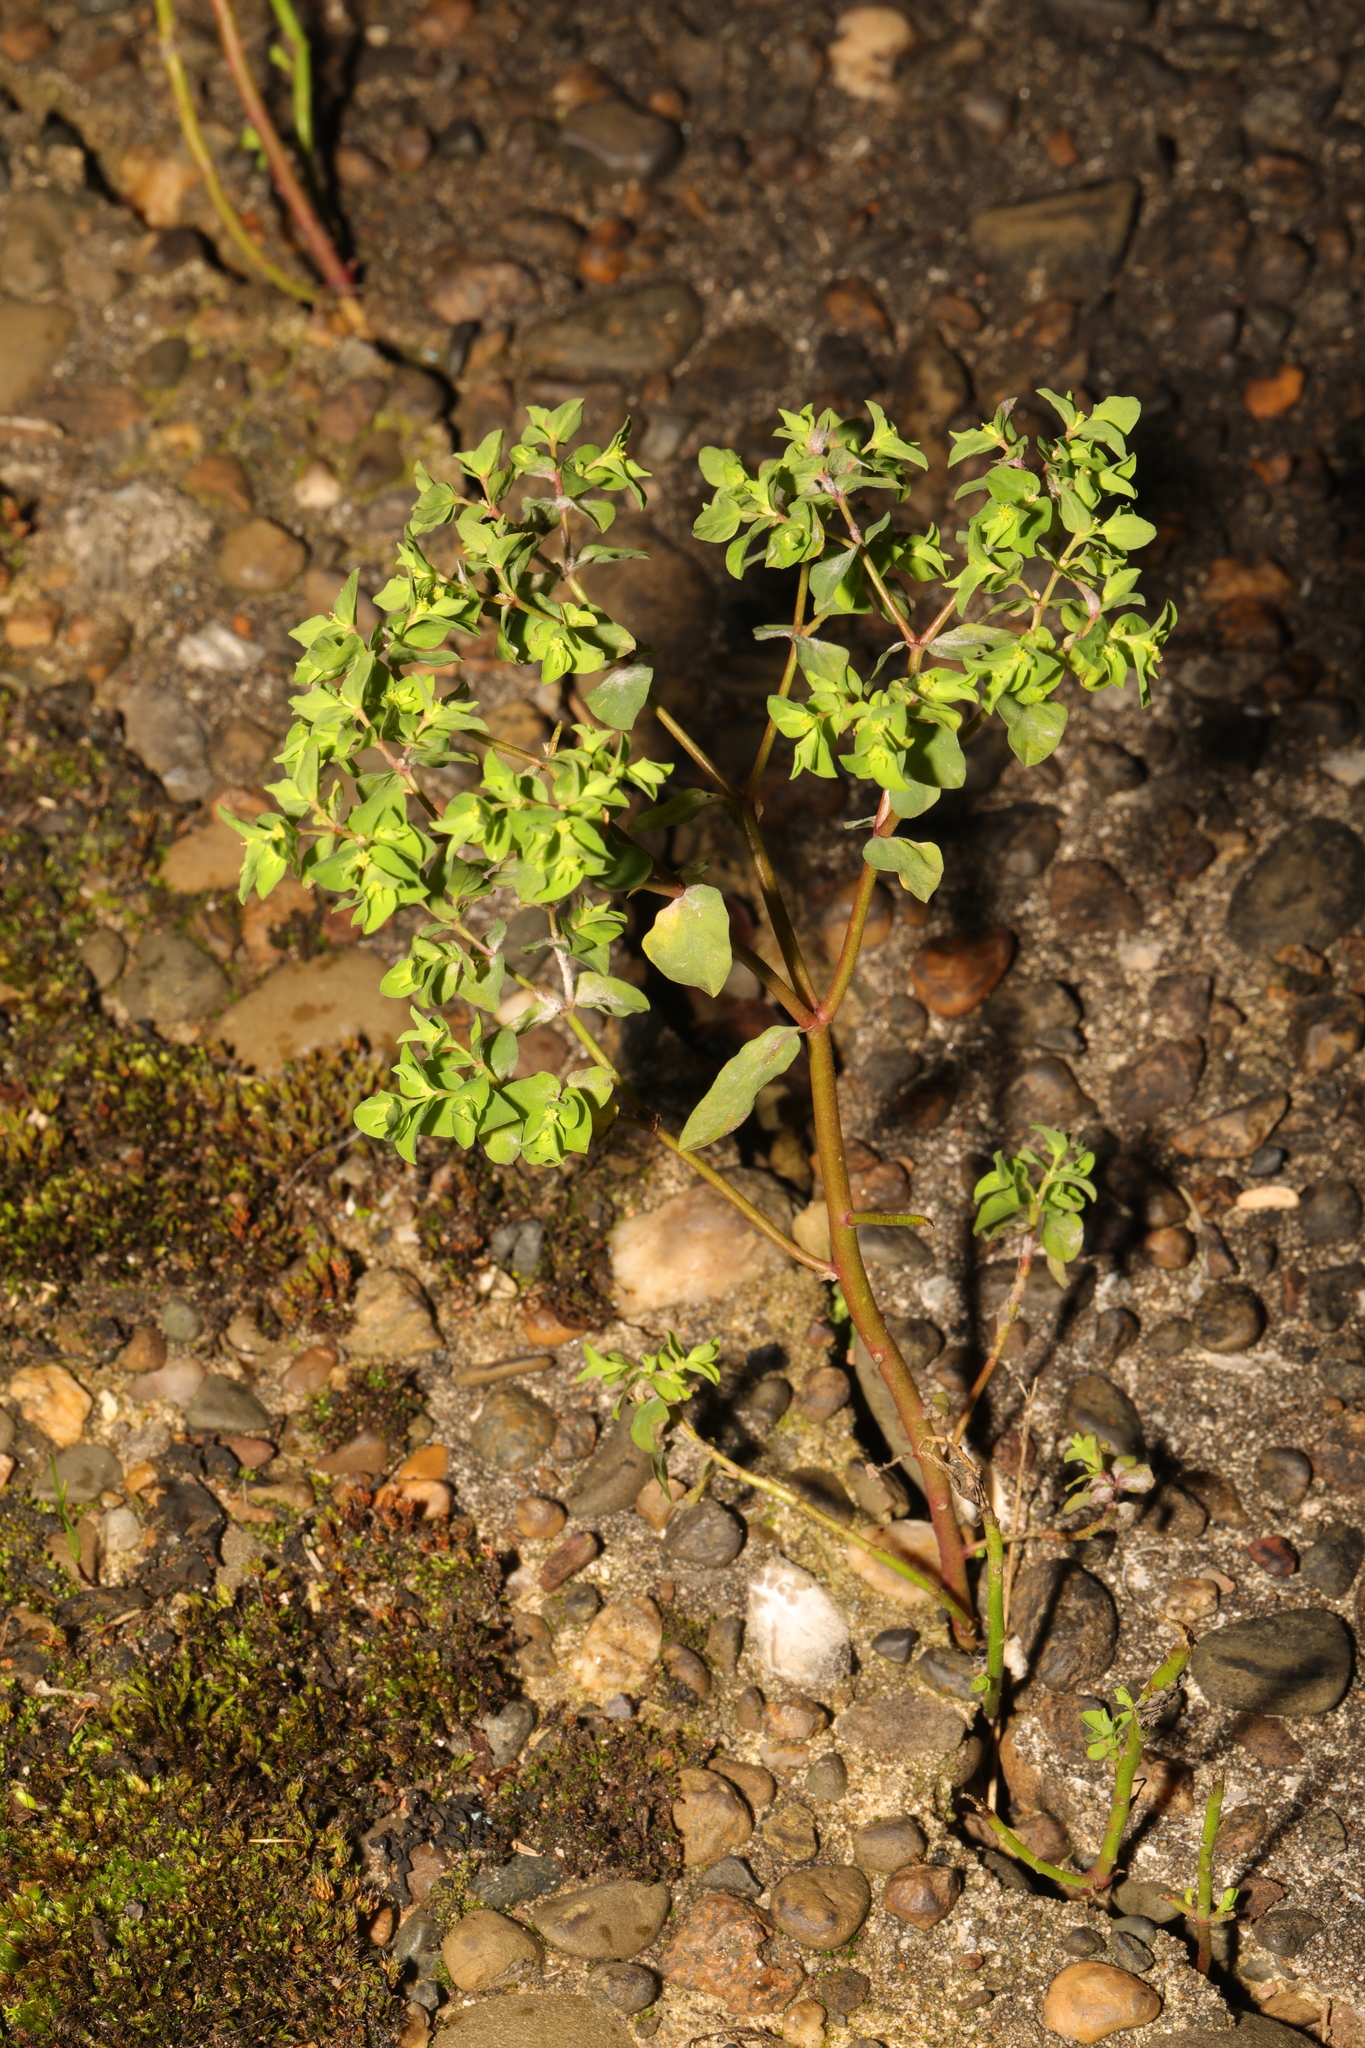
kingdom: Plantae
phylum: Tracheophyta
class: Magnoliopsida
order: Malpighiales
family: Euphorbiaceae
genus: Euphorbia
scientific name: Euphorbia peplus
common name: Petty spurge
